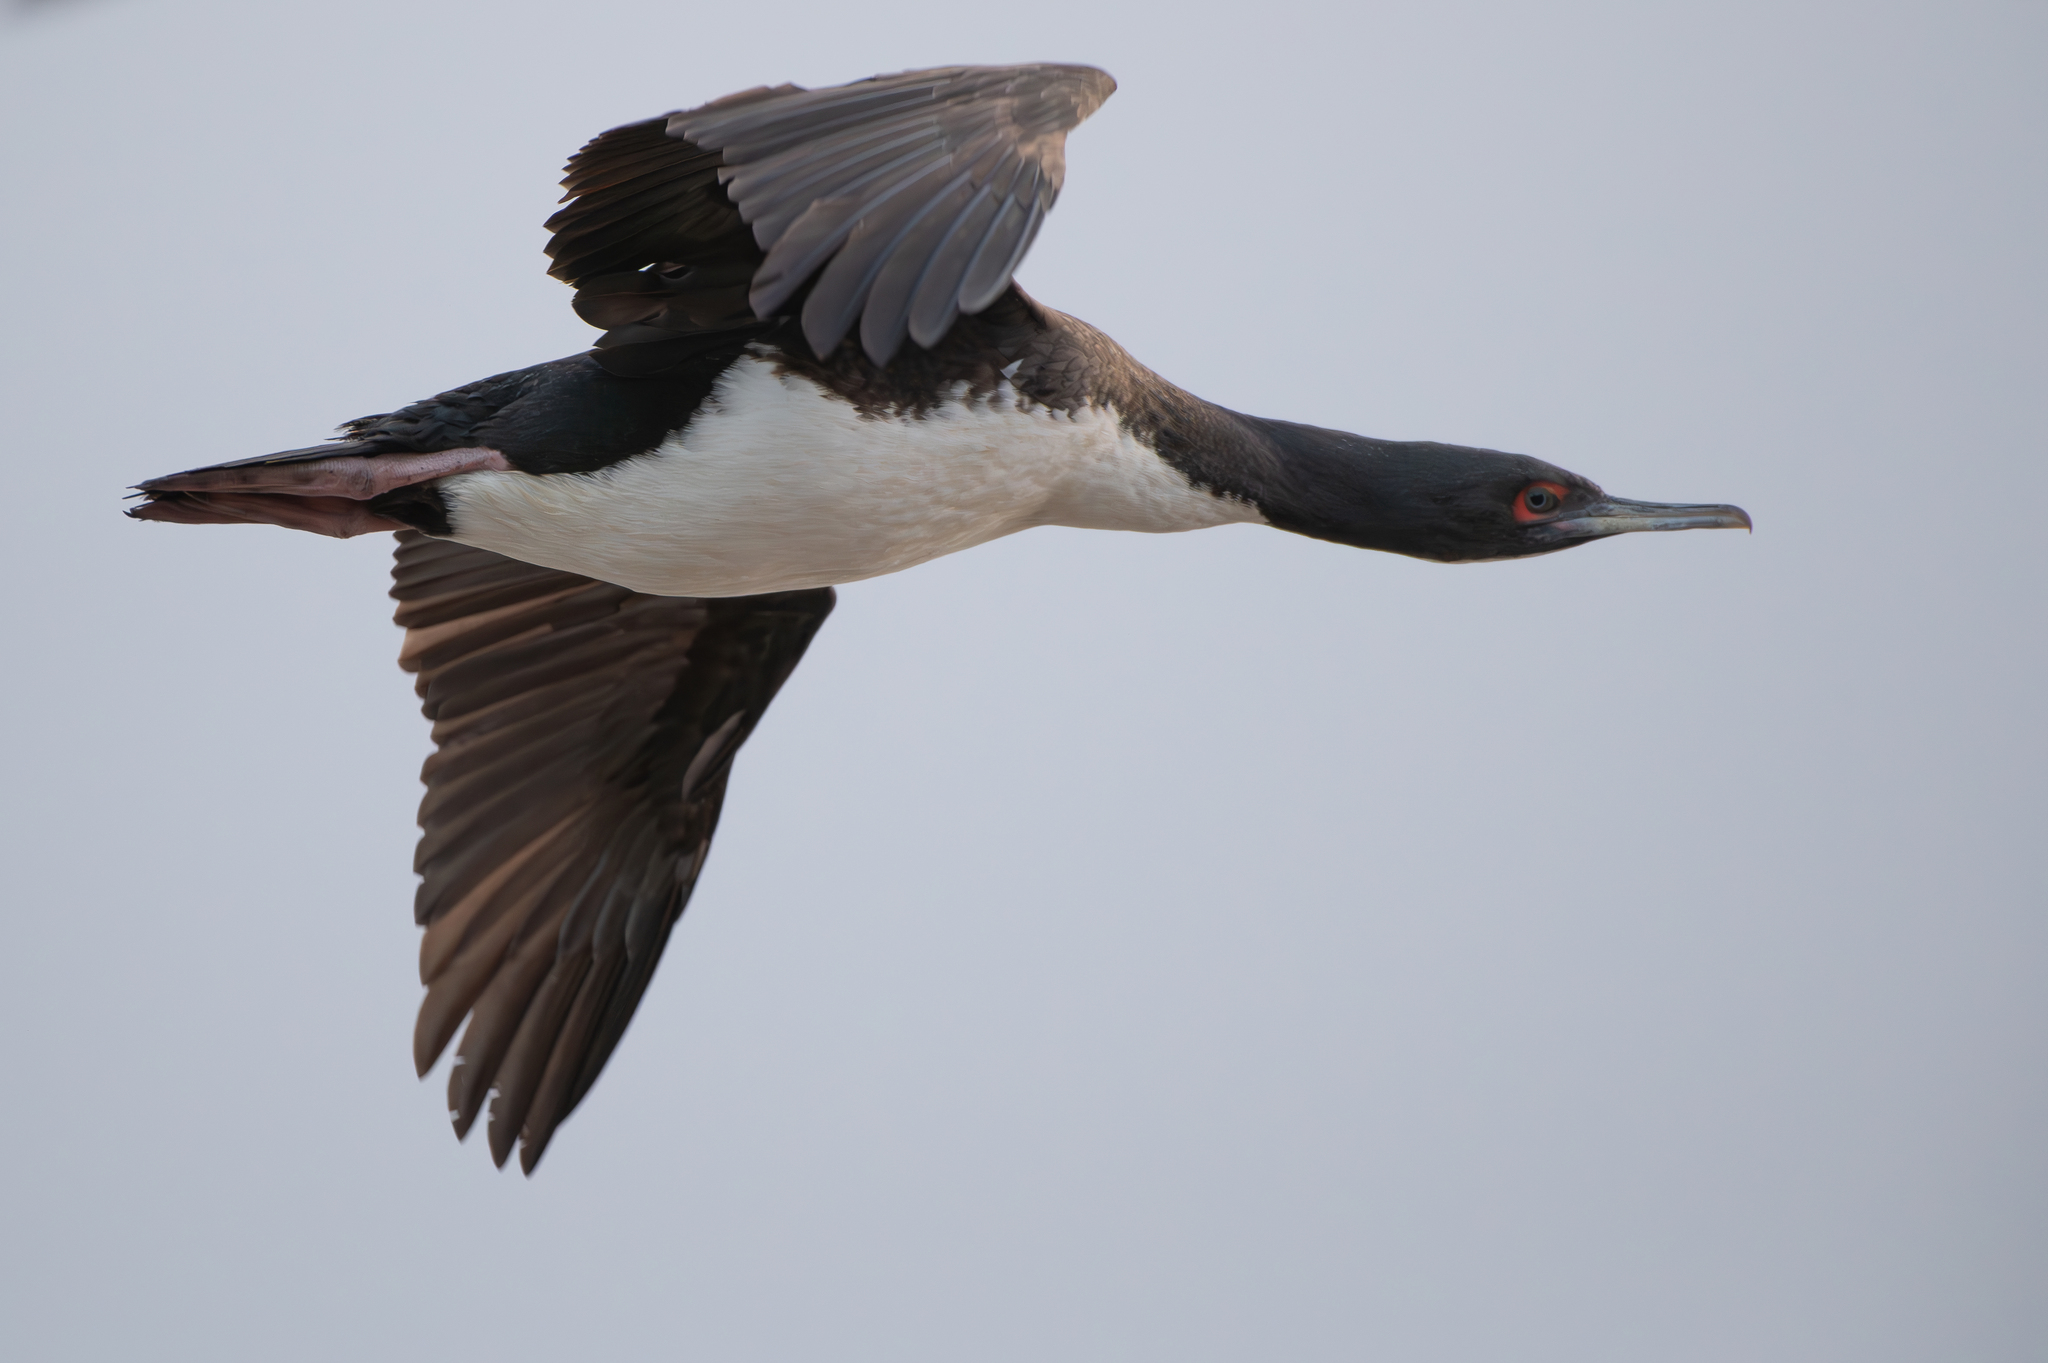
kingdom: Animalia
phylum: Chordata
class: Aves
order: Suliformes
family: Phalacrocoracidae
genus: Leucocarbo
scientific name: Leucocarbo bougainvillii
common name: Guanay cormorant
